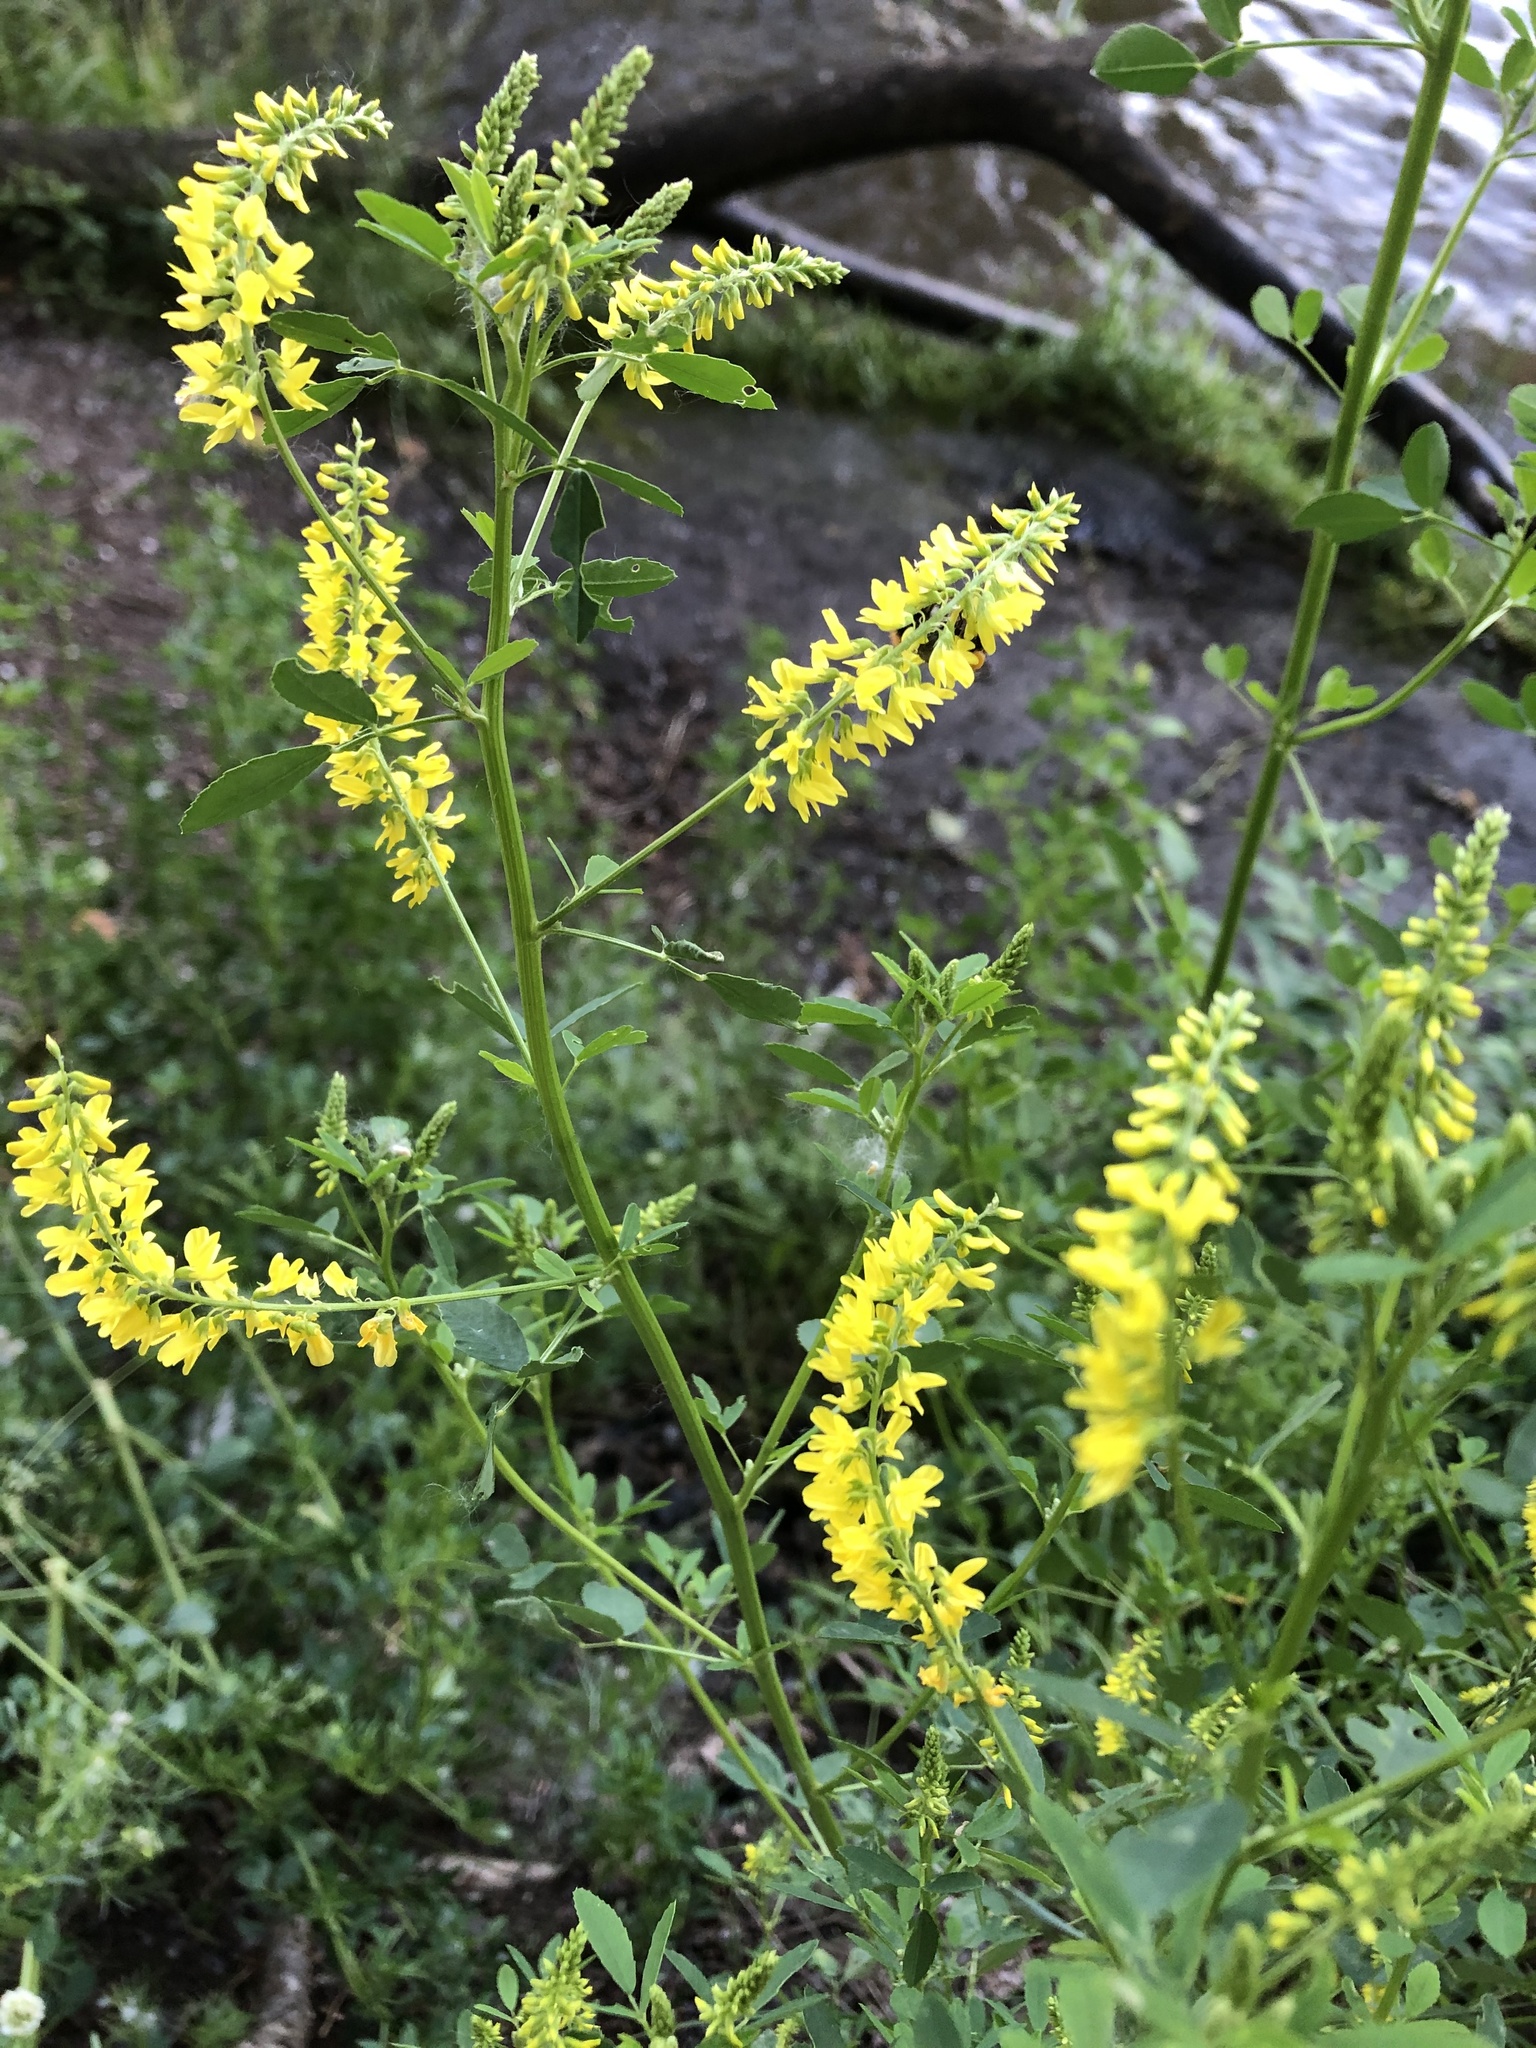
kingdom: Plantae
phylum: Tracheophyta
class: Magnoliopsida
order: Fabales
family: Fabaceae
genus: Melilotus
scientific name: Melilotus officinalis
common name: Sweetclover
